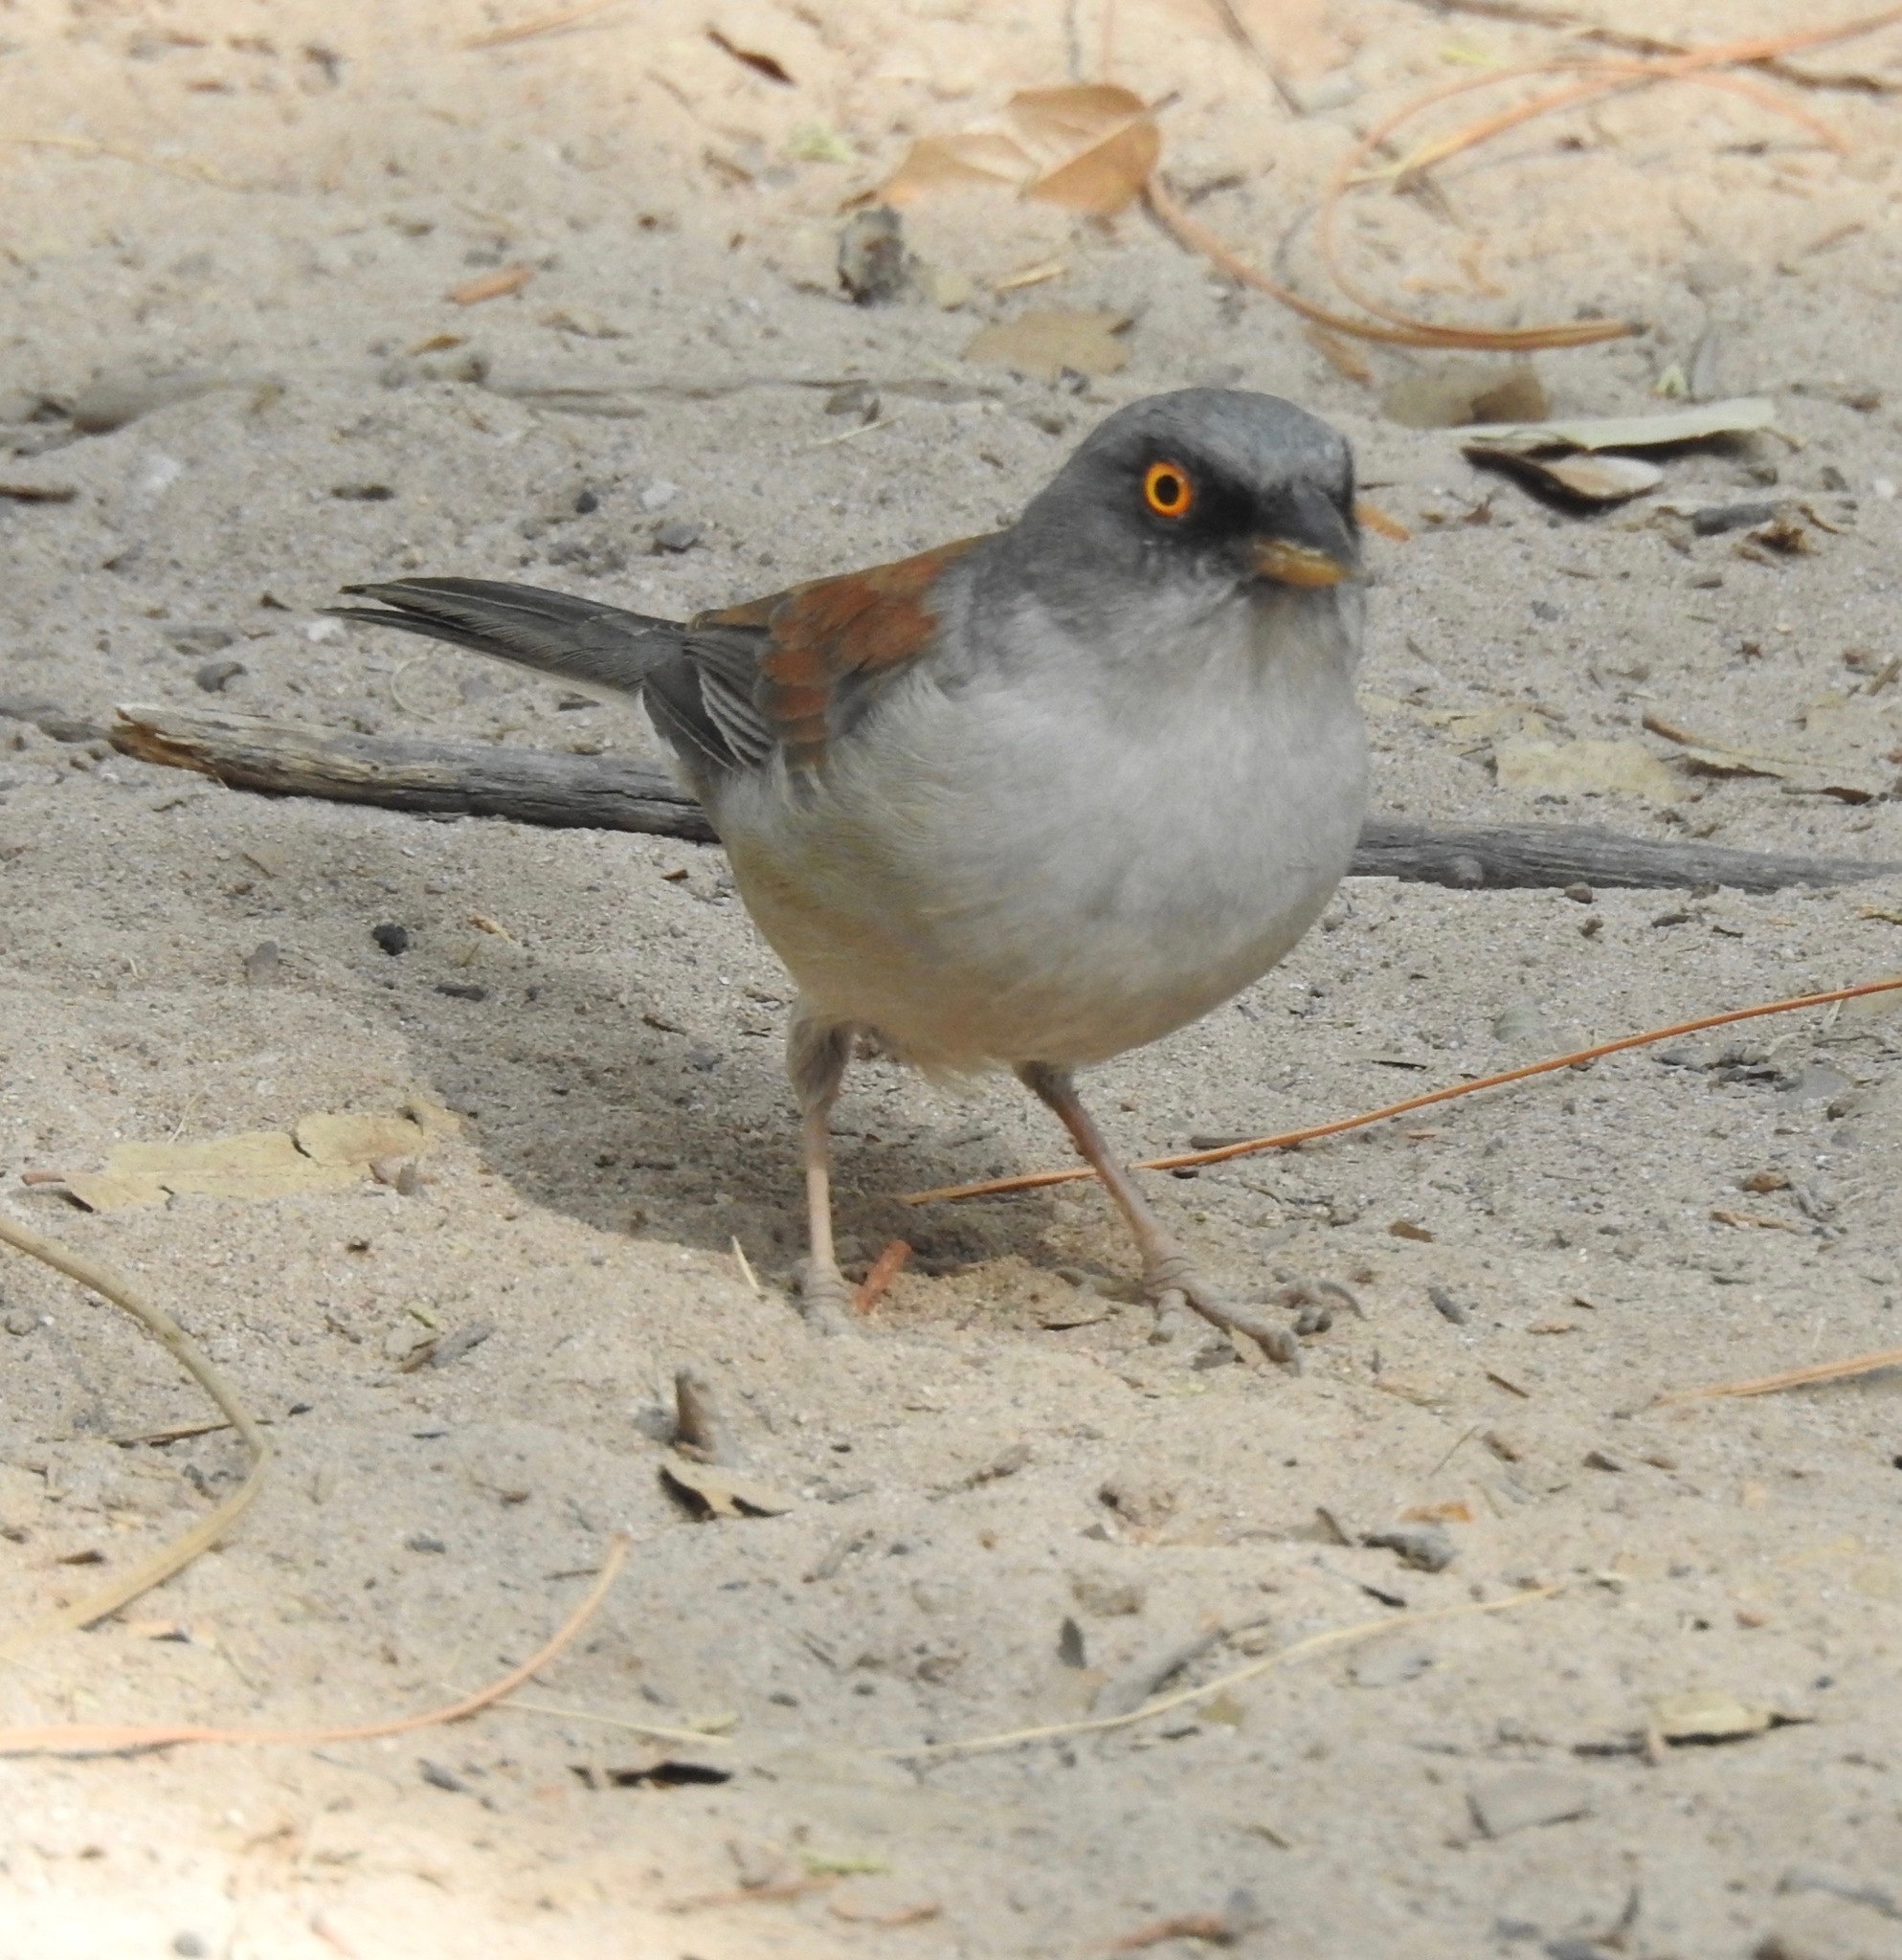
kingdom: Animalia
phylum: Chordata
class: Aves
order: Passeriformes
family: Passerellidae
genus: Junco
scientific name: Junco phaeonotus
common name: Yellow-eyed junco
